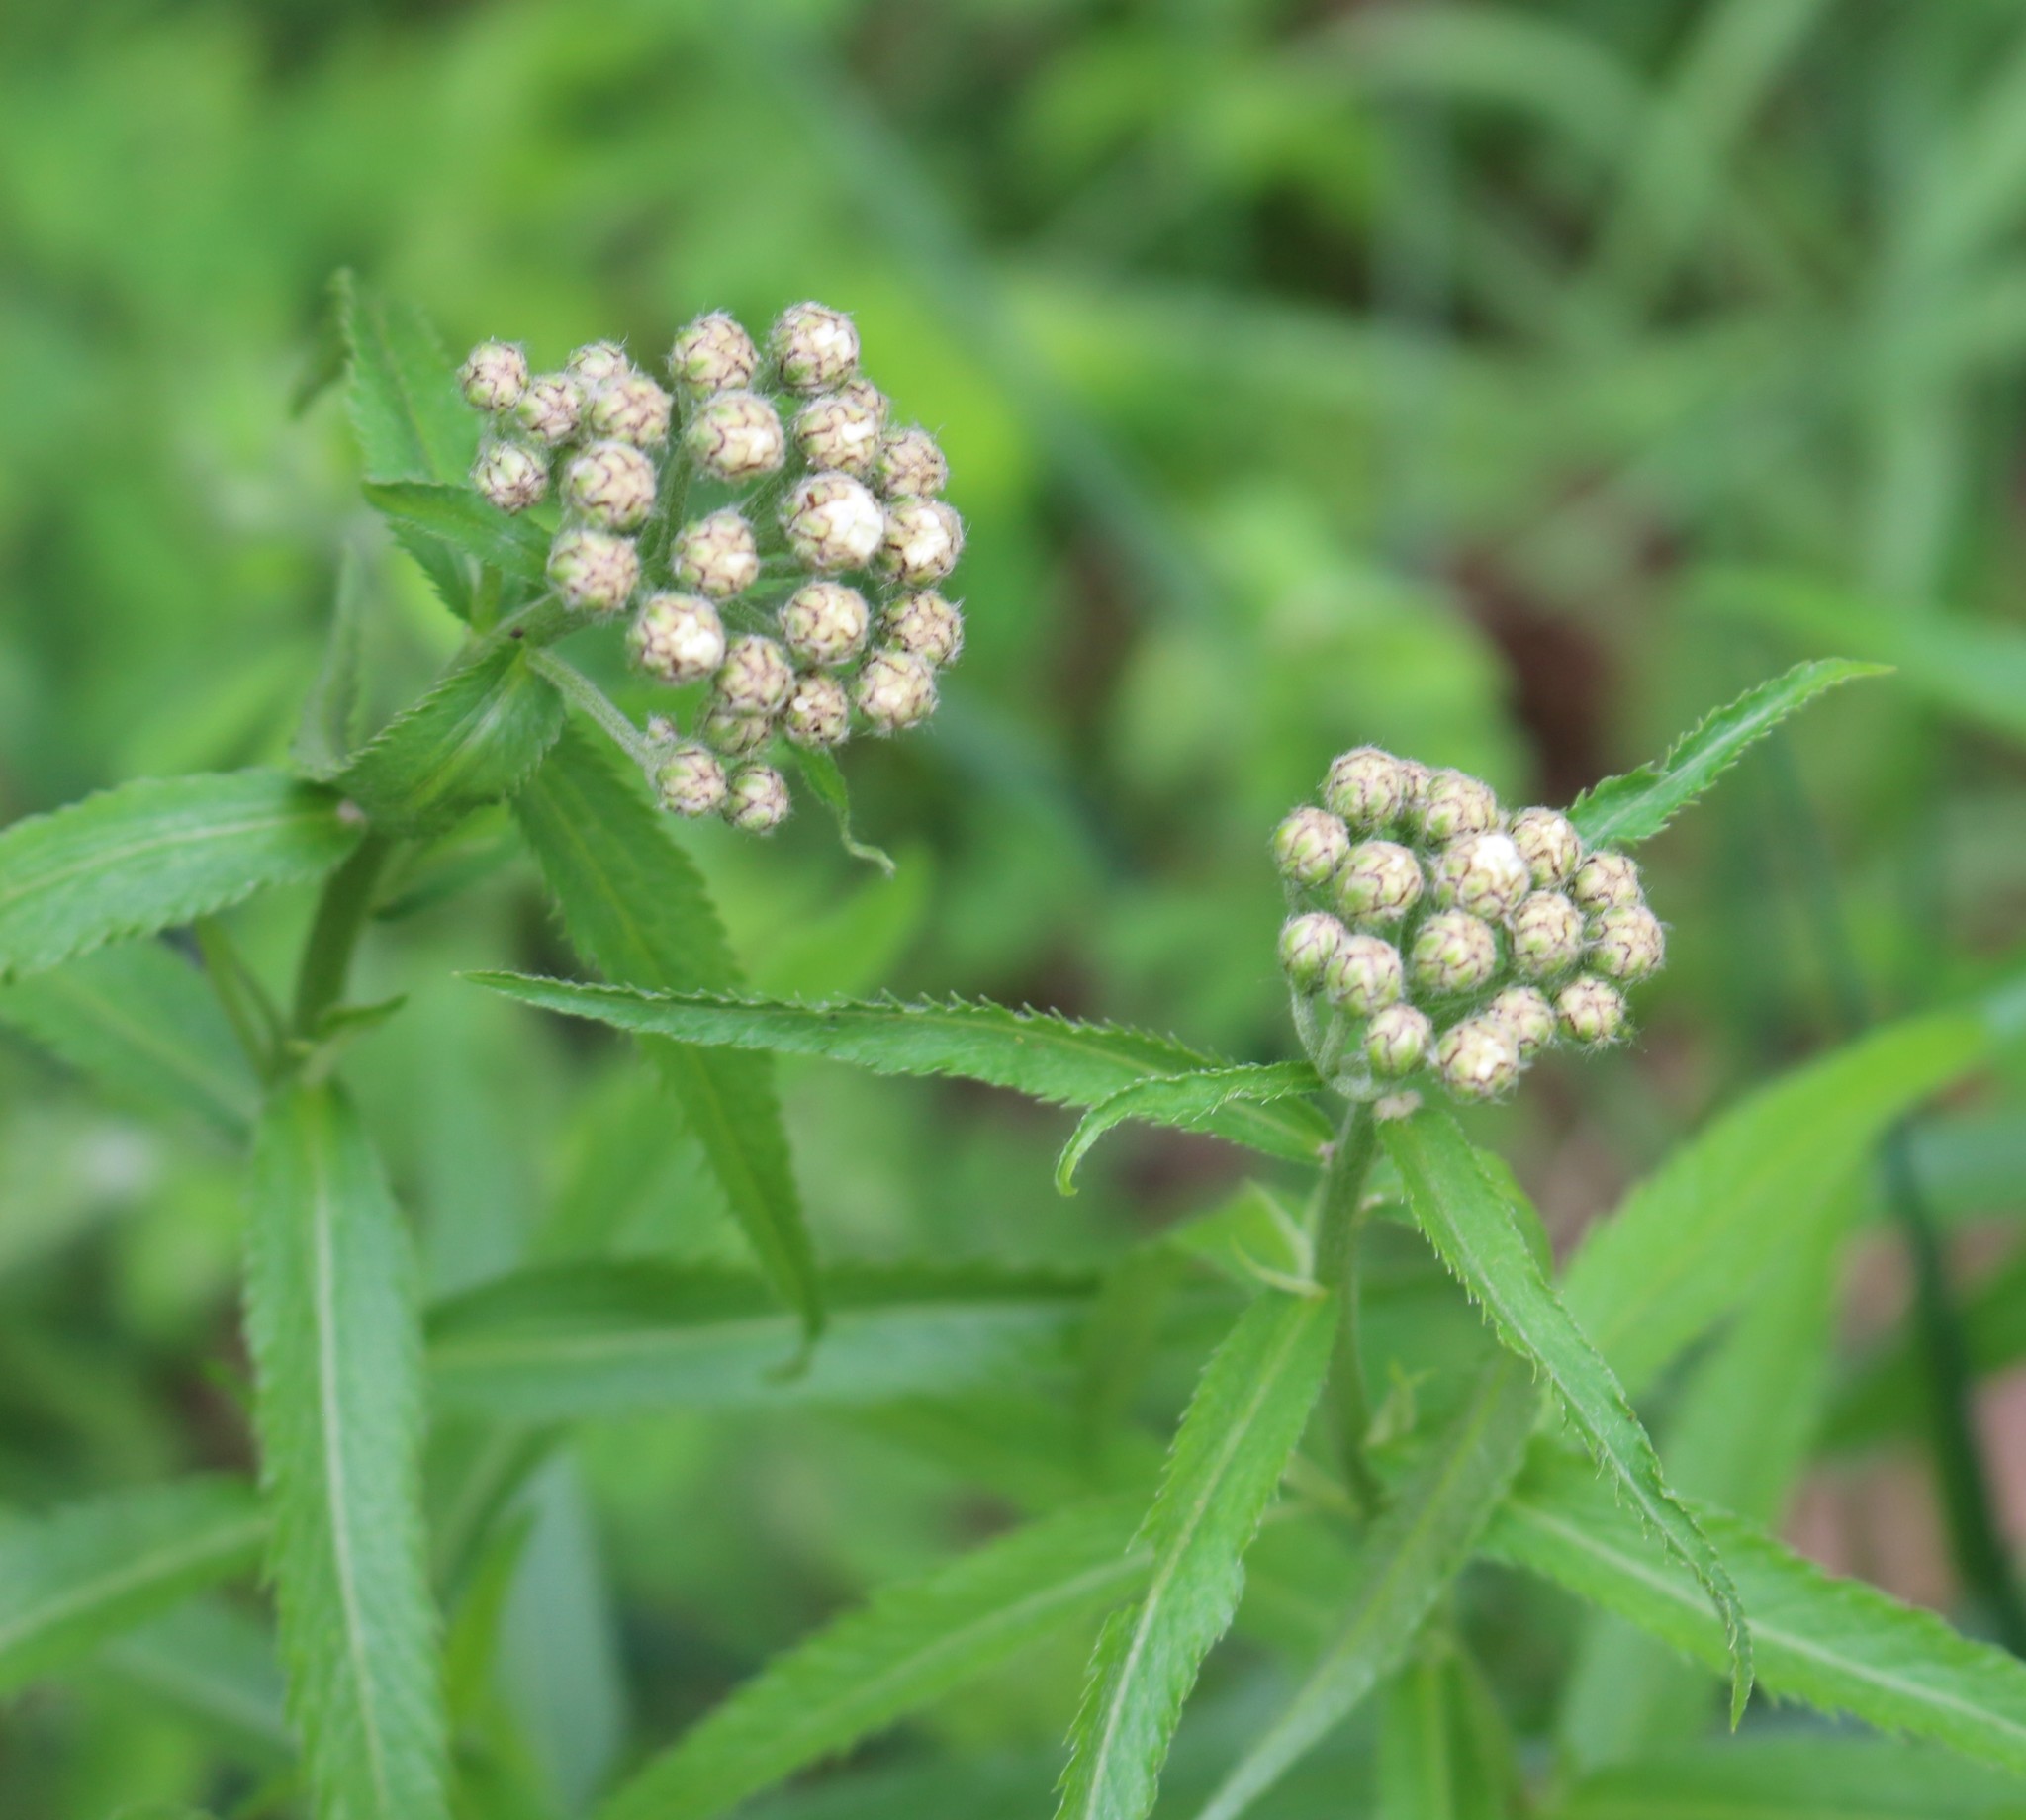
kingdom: Plantae
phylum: Tracheophyta
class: Magnoliopsida
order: Asterales
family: Asteraceae
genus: Achillea
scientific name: Achillea biserrata
